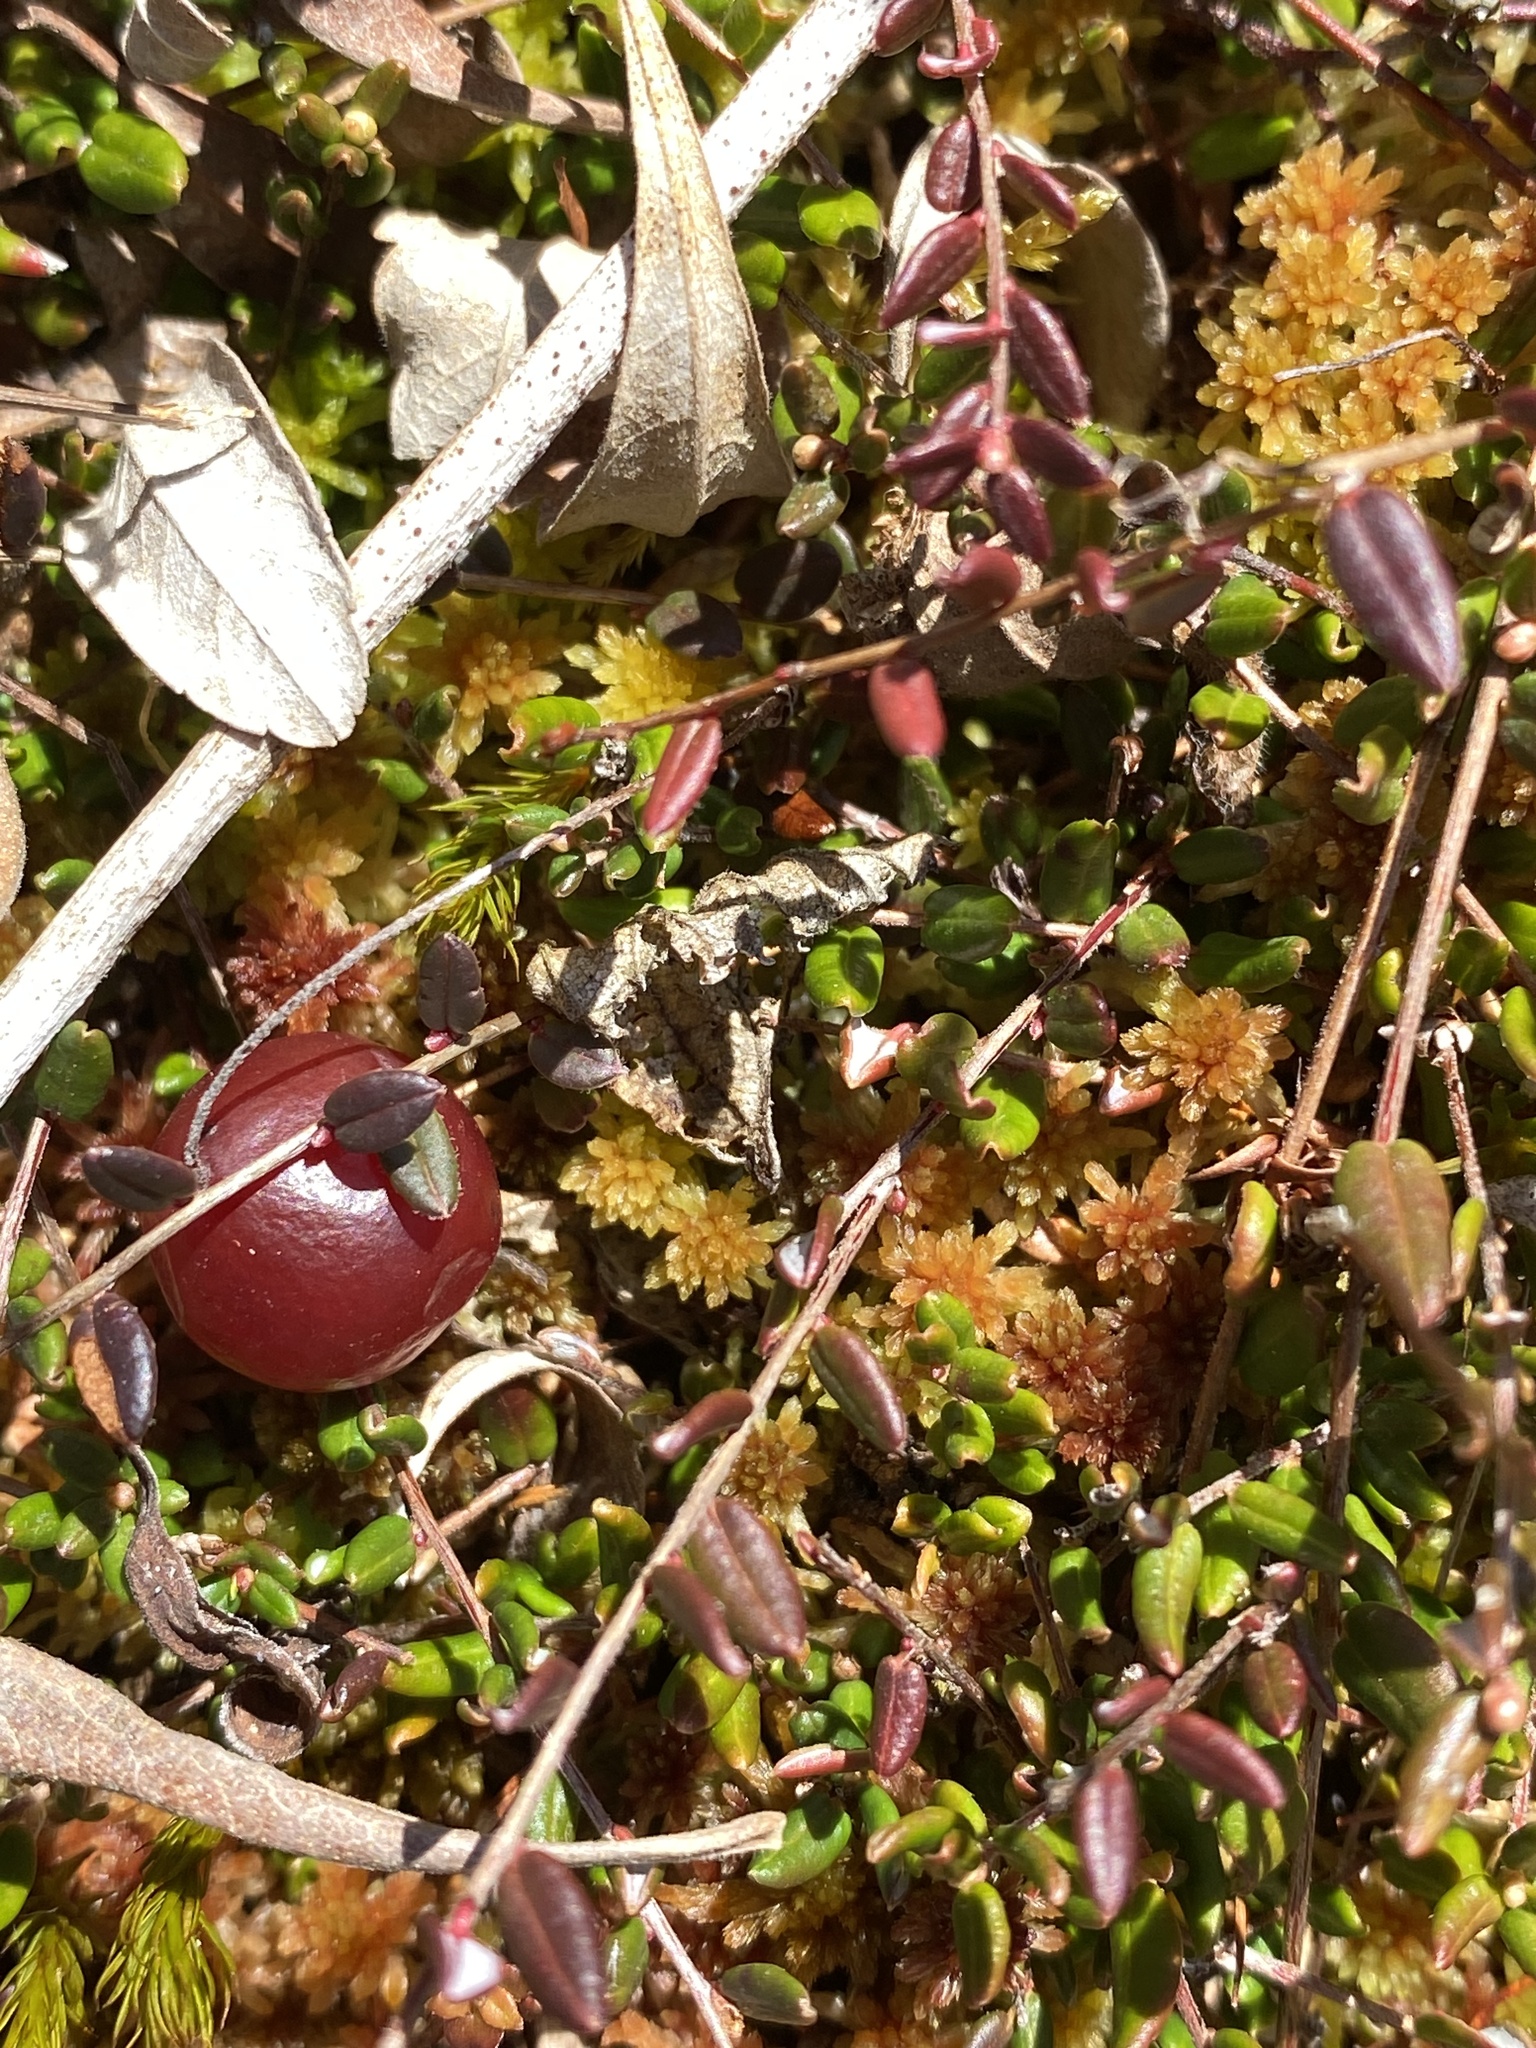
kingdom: Plantae
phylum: Tracheophyta
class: Magnoliopsida
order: Ericales
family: Ericaceae
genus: Vaccinium
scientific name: Vaccinium oxycoccos
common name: Cranberry
